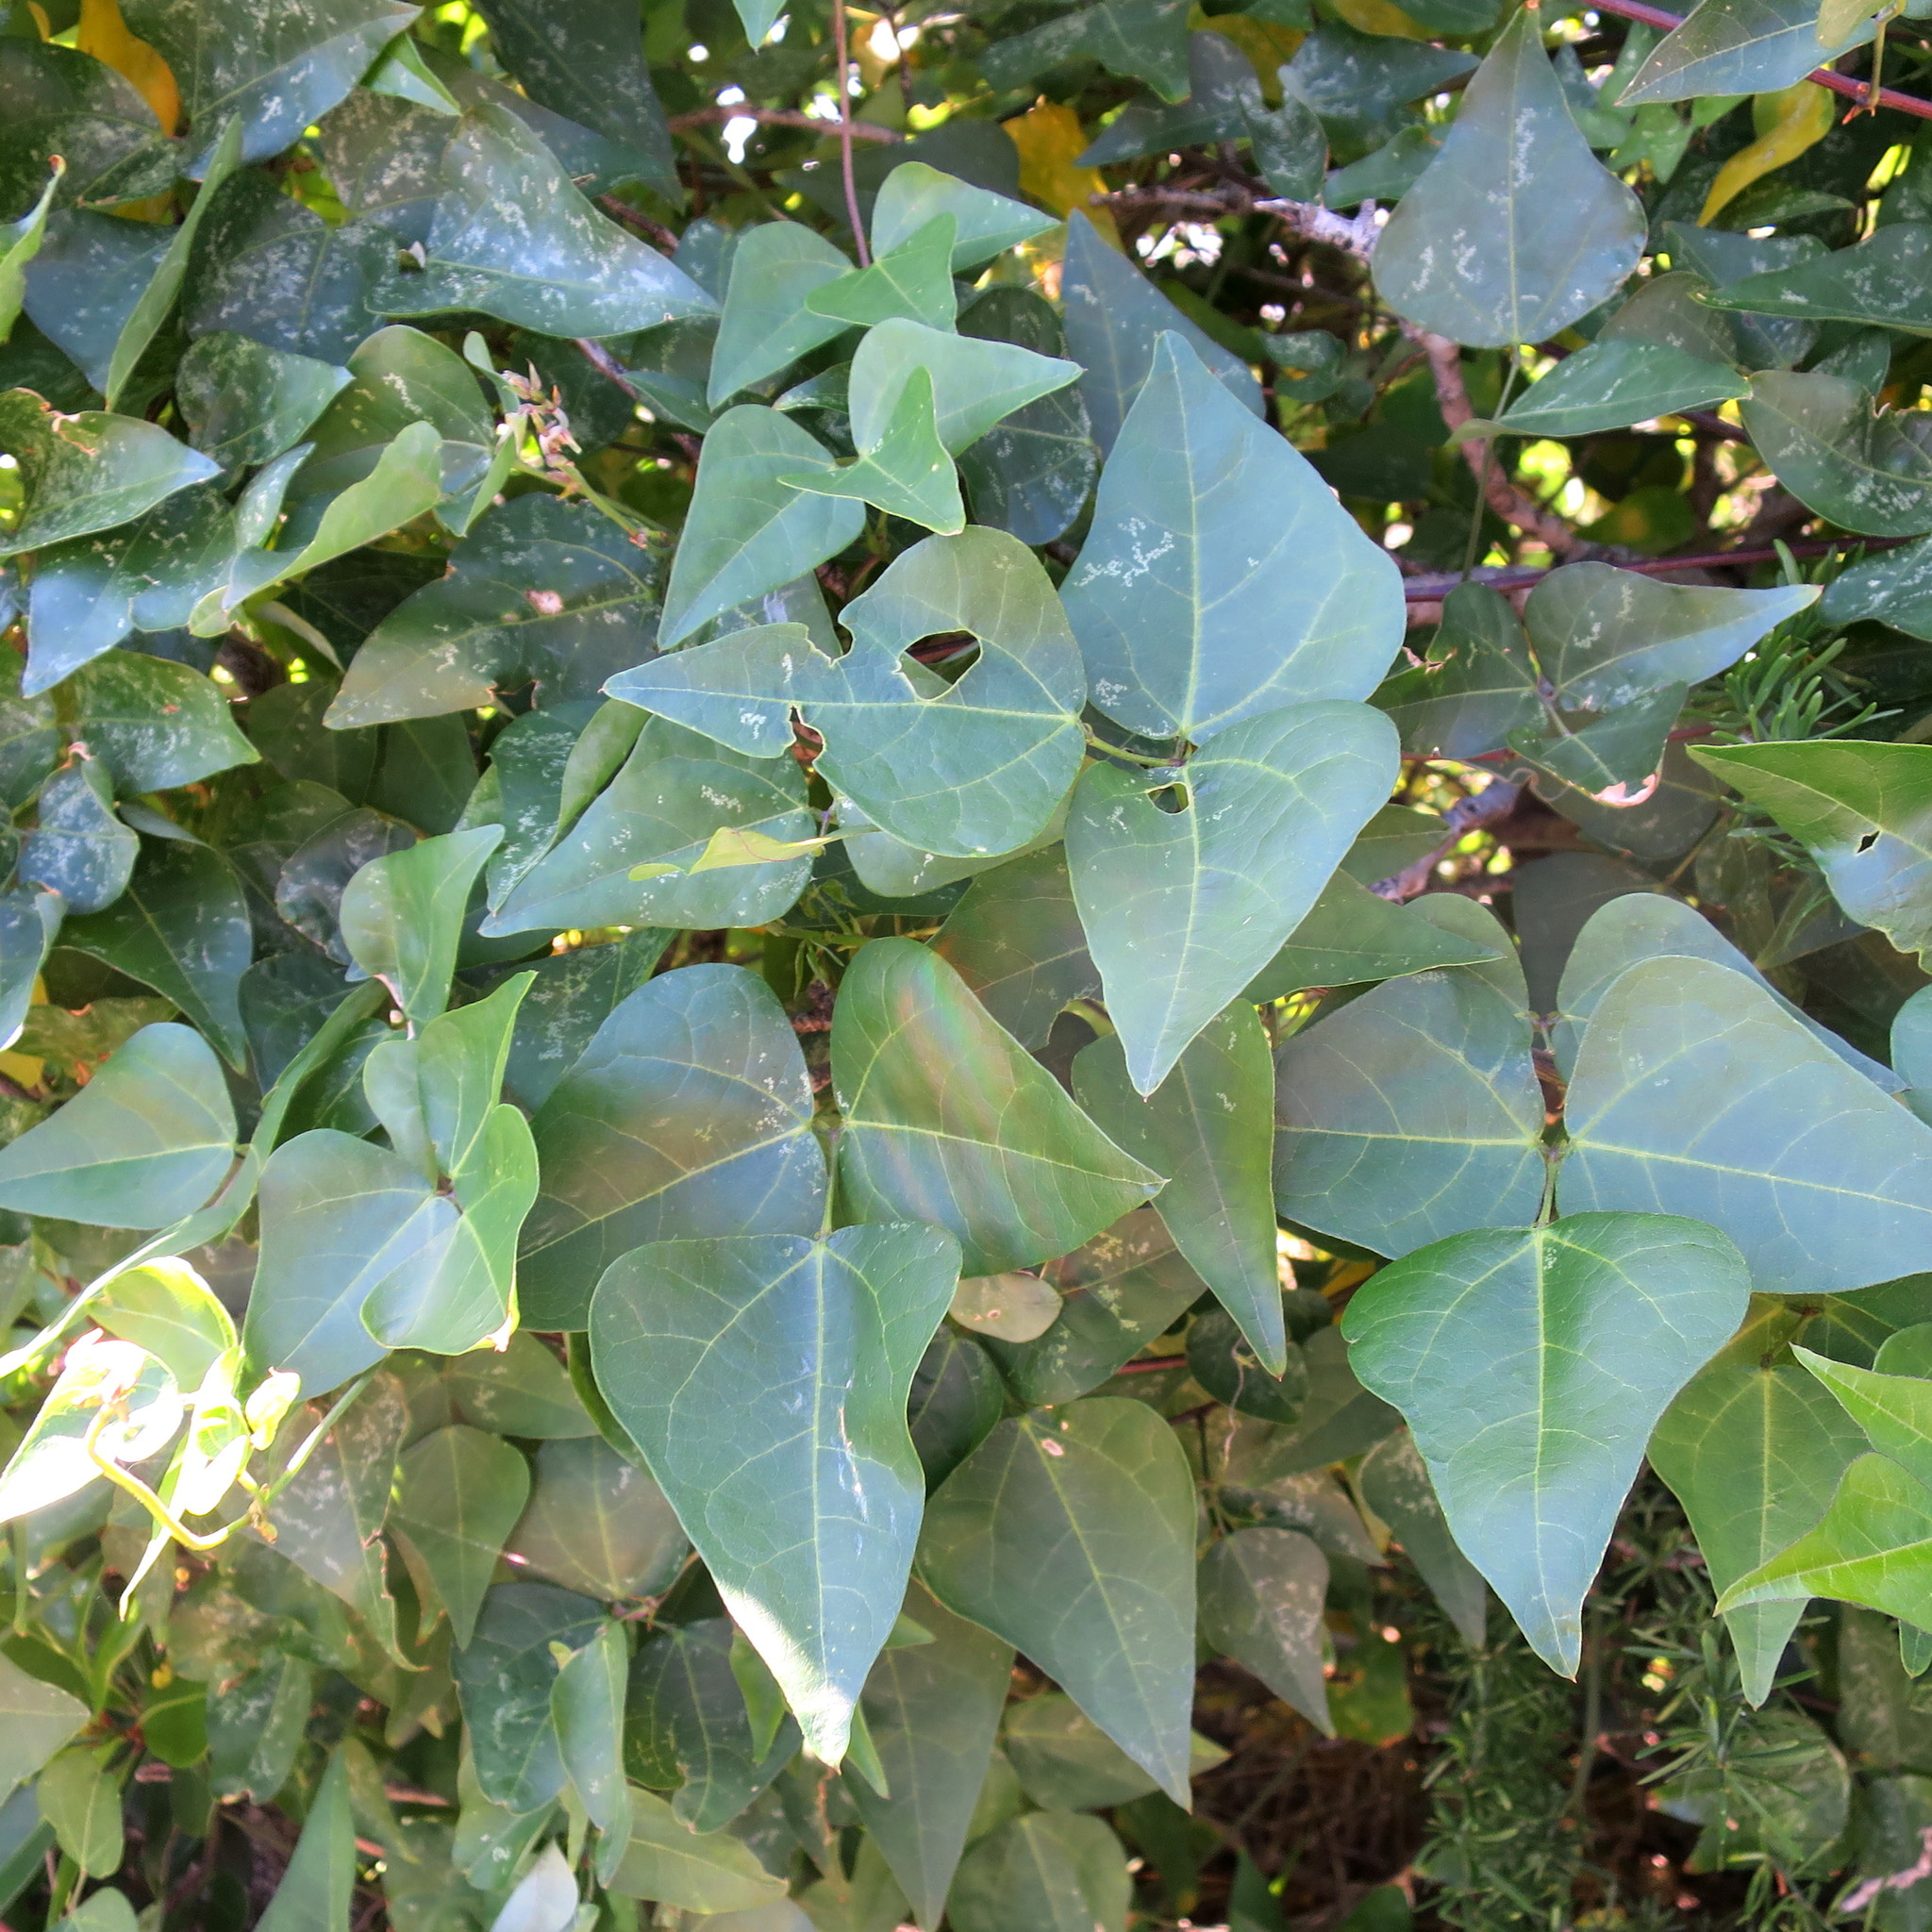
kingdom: Plantae
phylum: Tracheophyta
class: Magnoliopsida
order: Fabales
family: Fabaceae
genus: Dipogon
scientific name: Dipogon lignosus
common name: Okie bean
